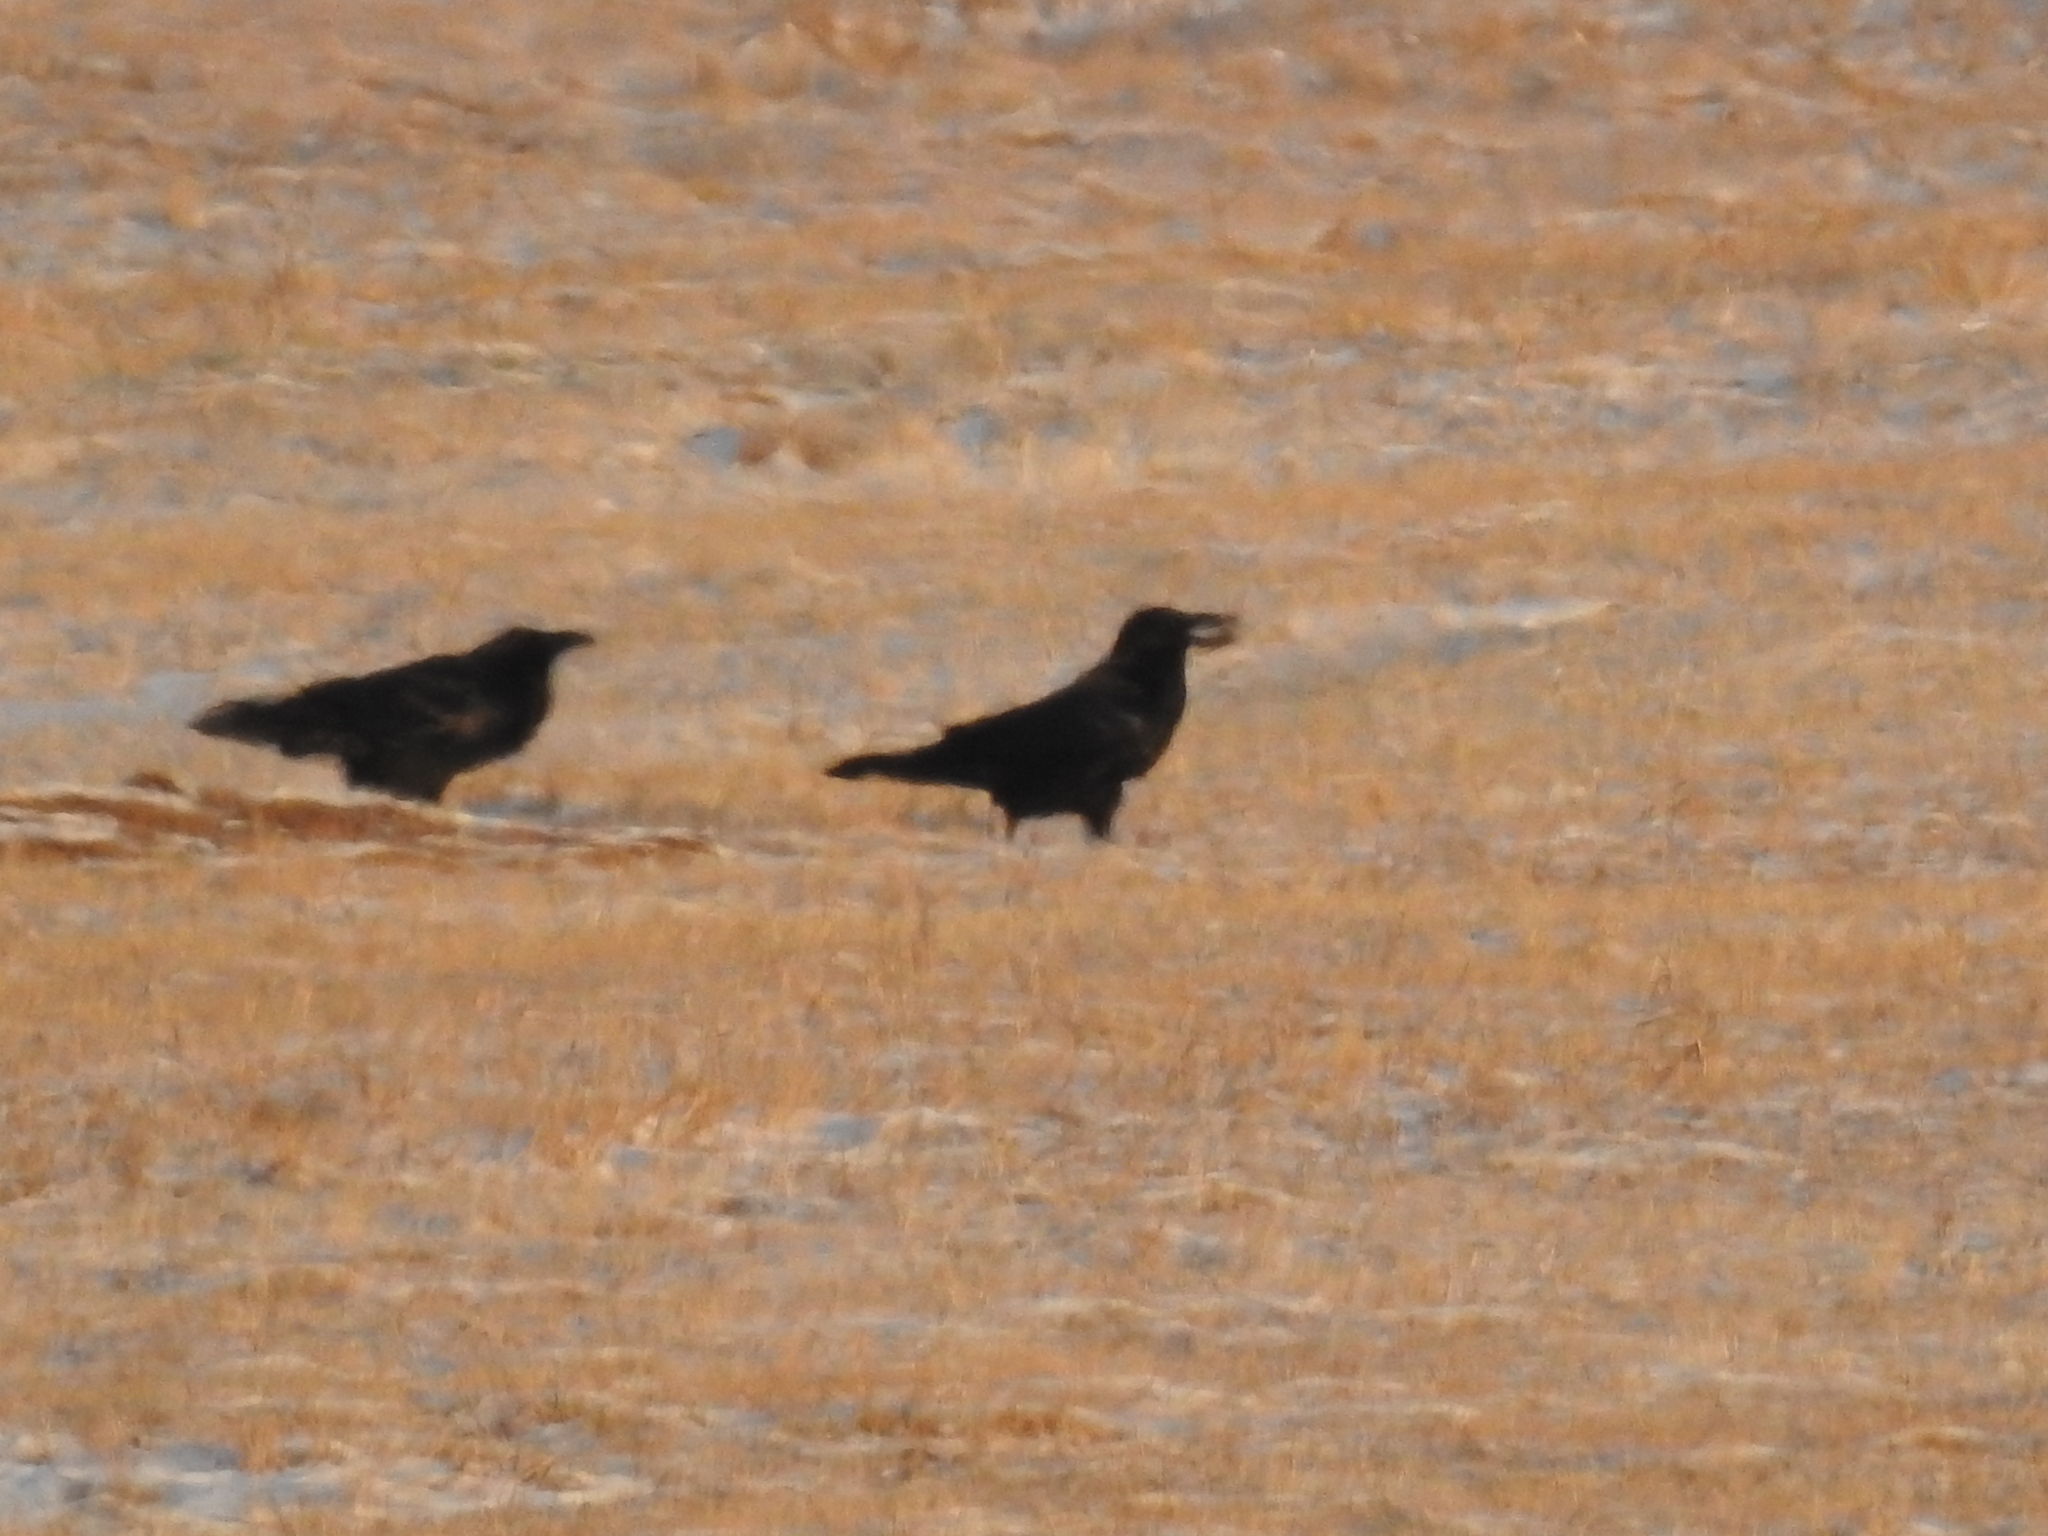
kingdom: Animalia
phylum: Chordata
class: Aves
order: Passeriformes
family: Corvidae
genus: Corvus
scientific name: Corvus corax
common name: Common raven
